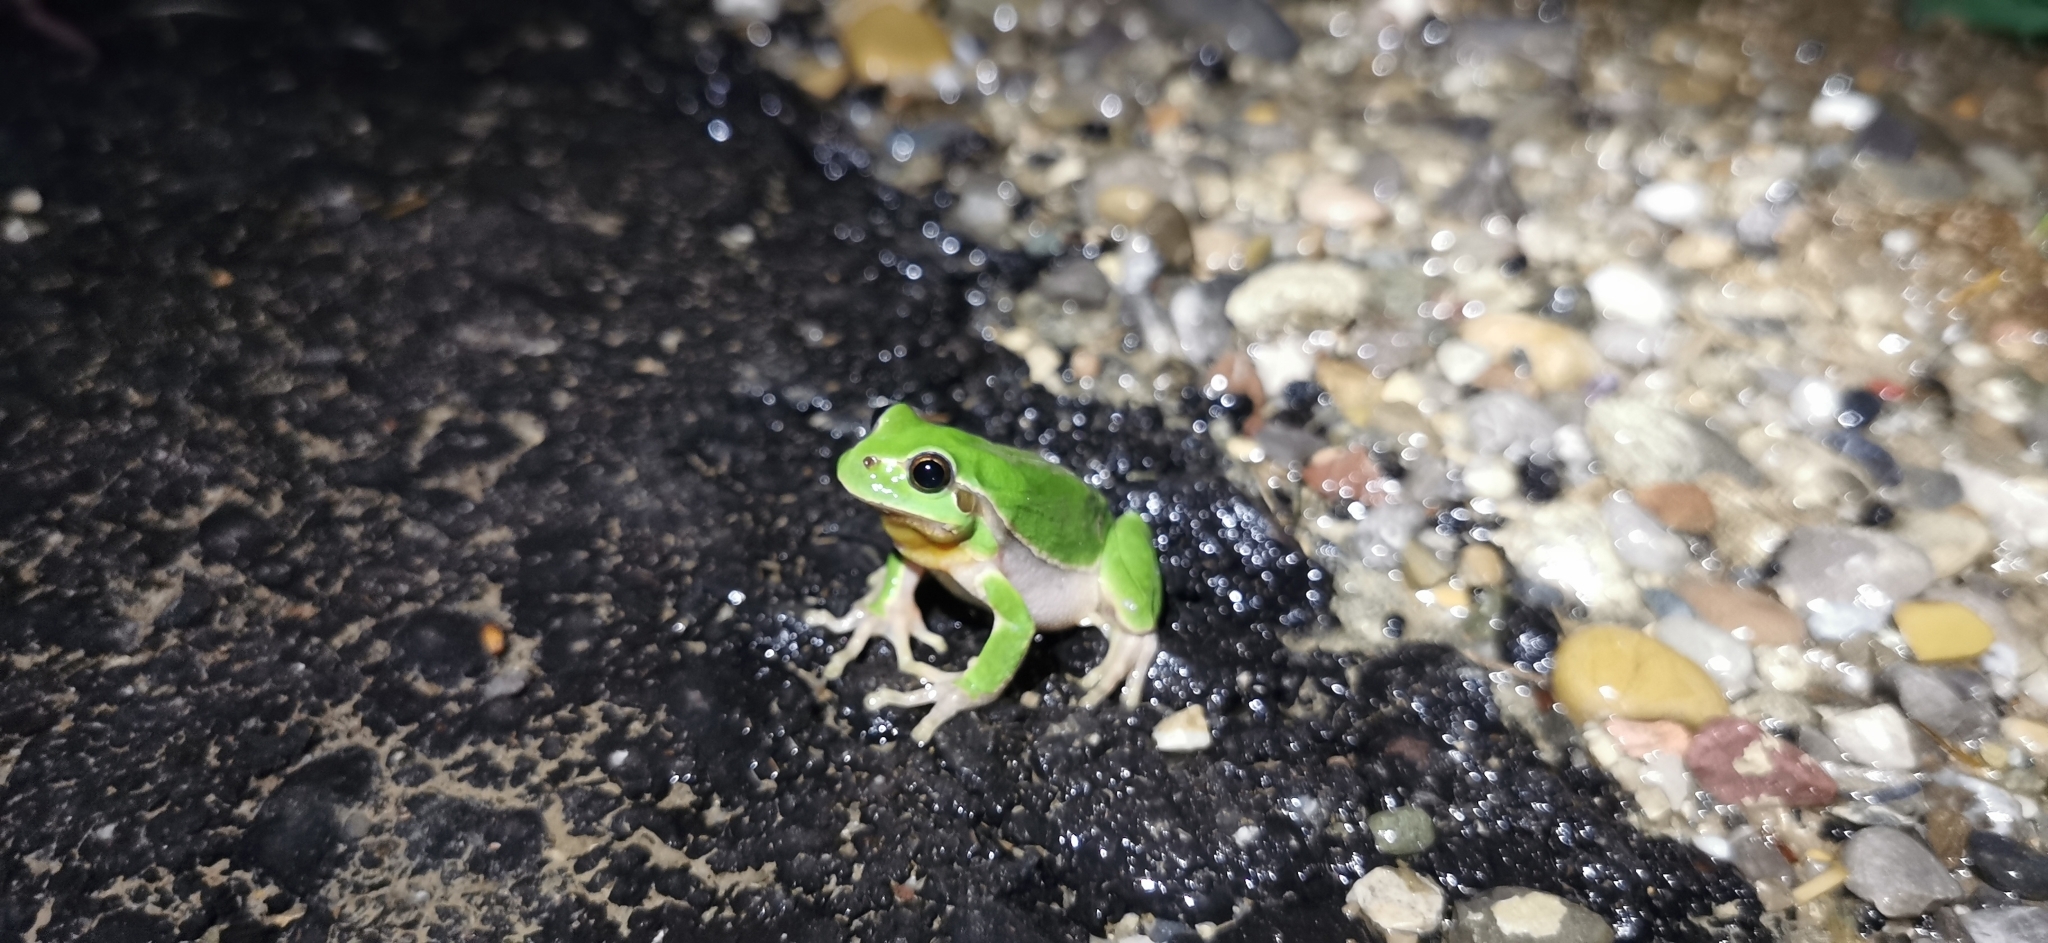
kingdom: Animalia
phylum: Chordata
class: Amphibia
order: Anura
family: Hylidae
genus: Hyla
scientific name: Hyla arborea
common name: Common tree frog
